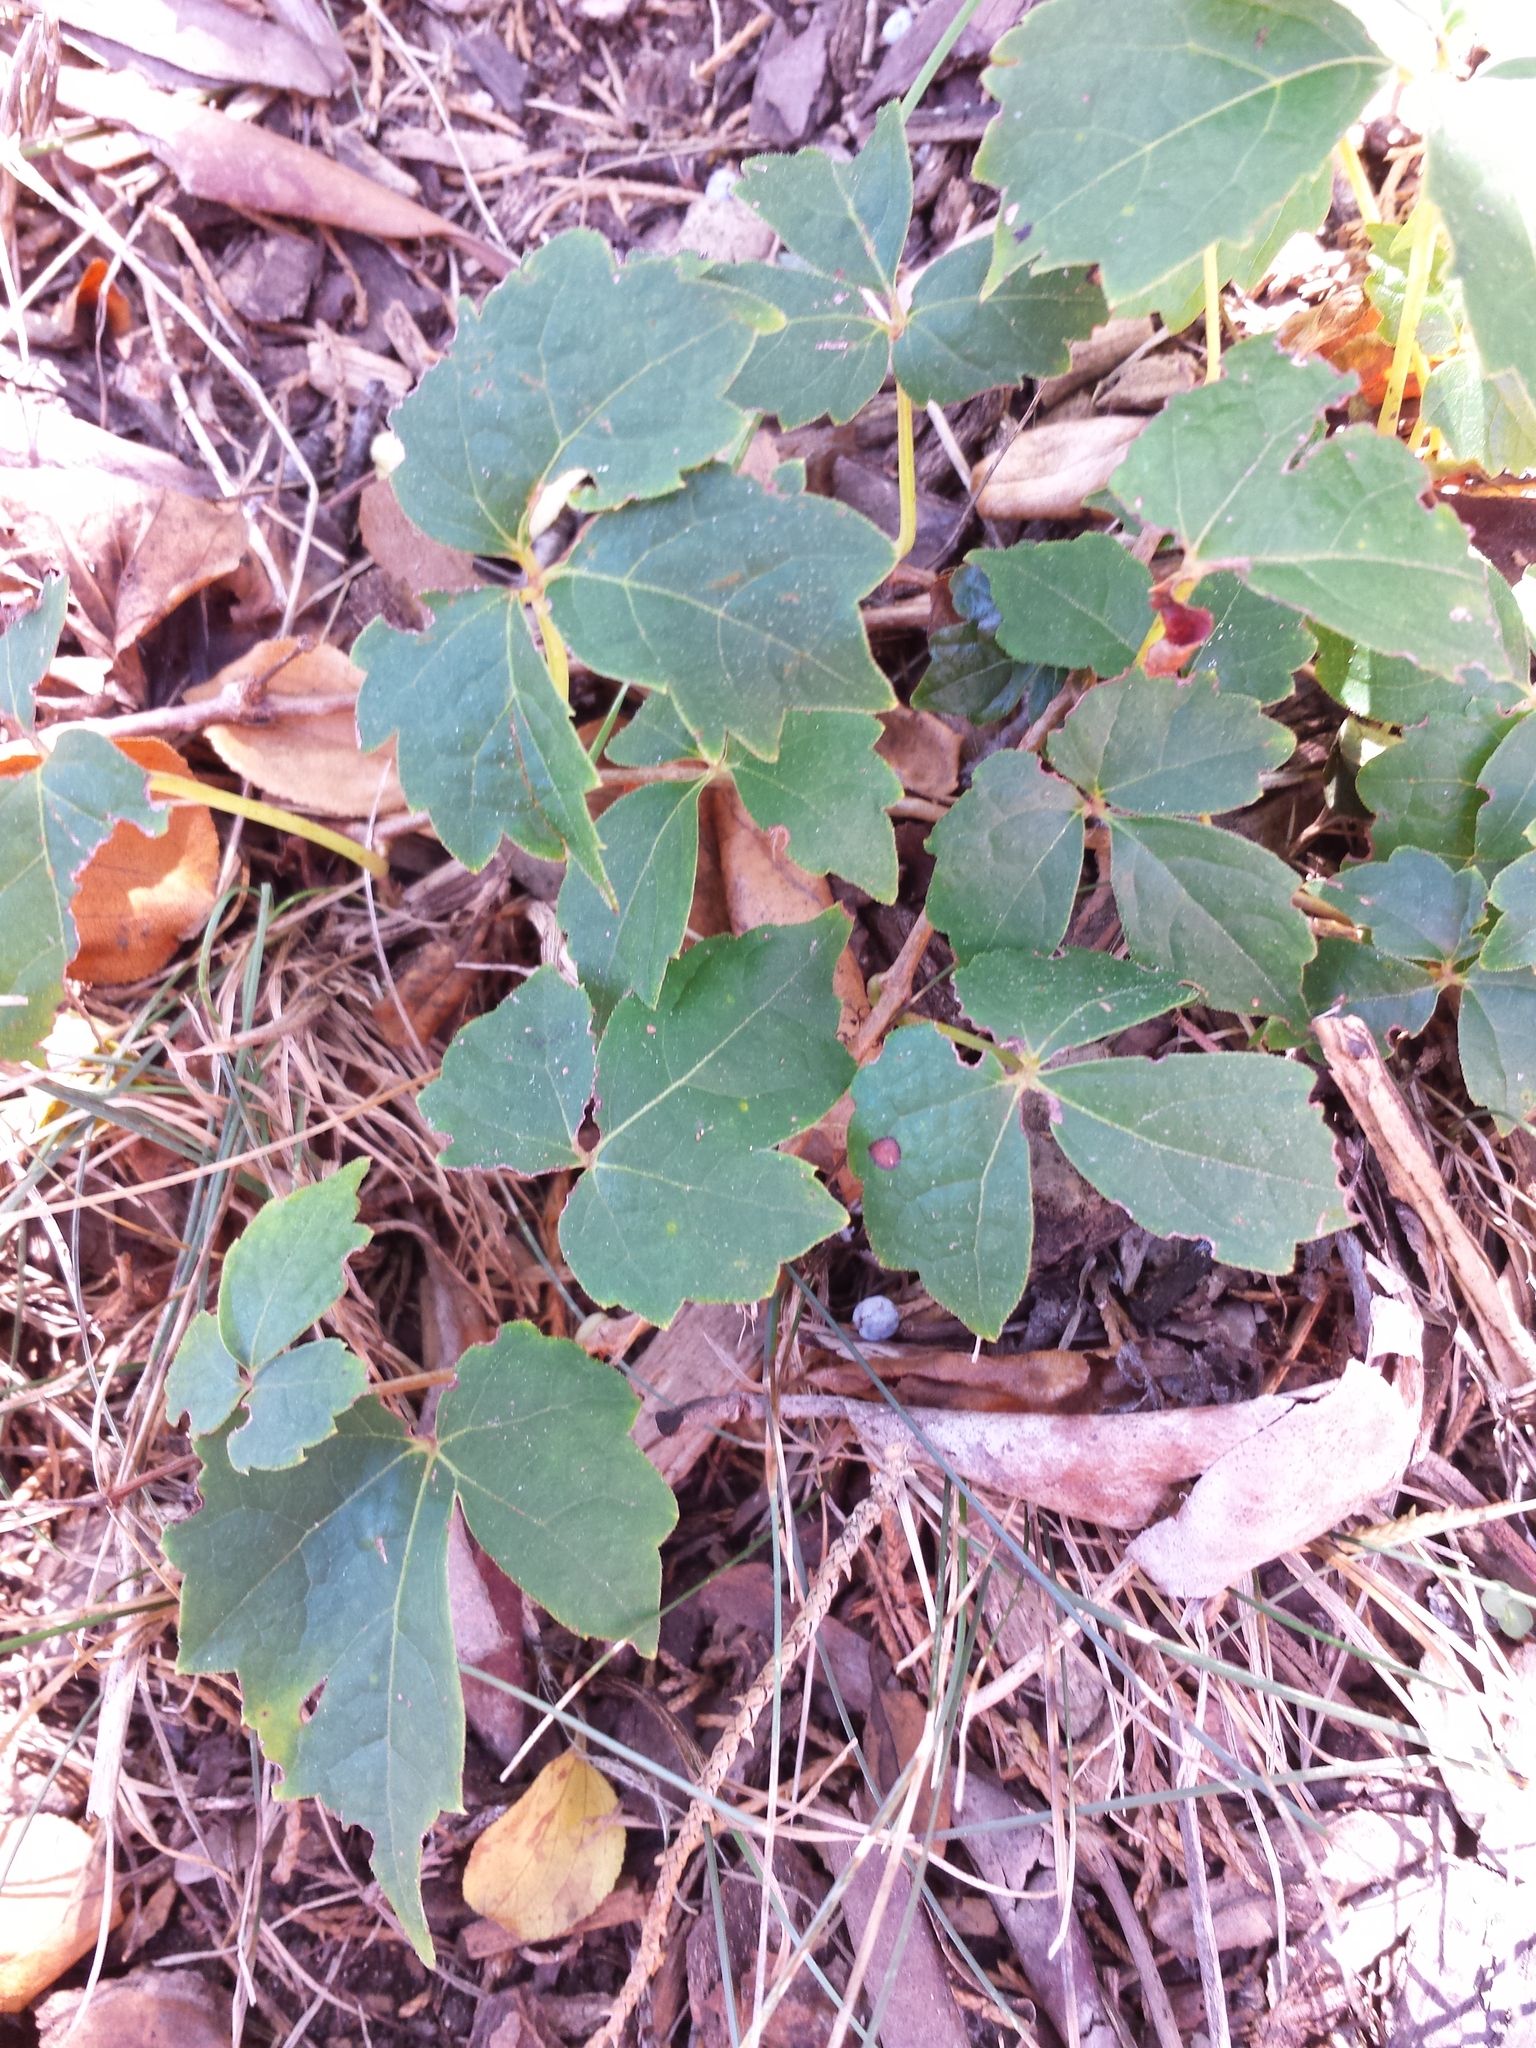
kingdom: Plantae
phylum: Tracheophyta
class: Magnoliopsida
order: Vitales
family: Vitaceae
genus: Parthenocissus
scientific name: Parthenocissus tricuspidata
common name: Boston ivy
